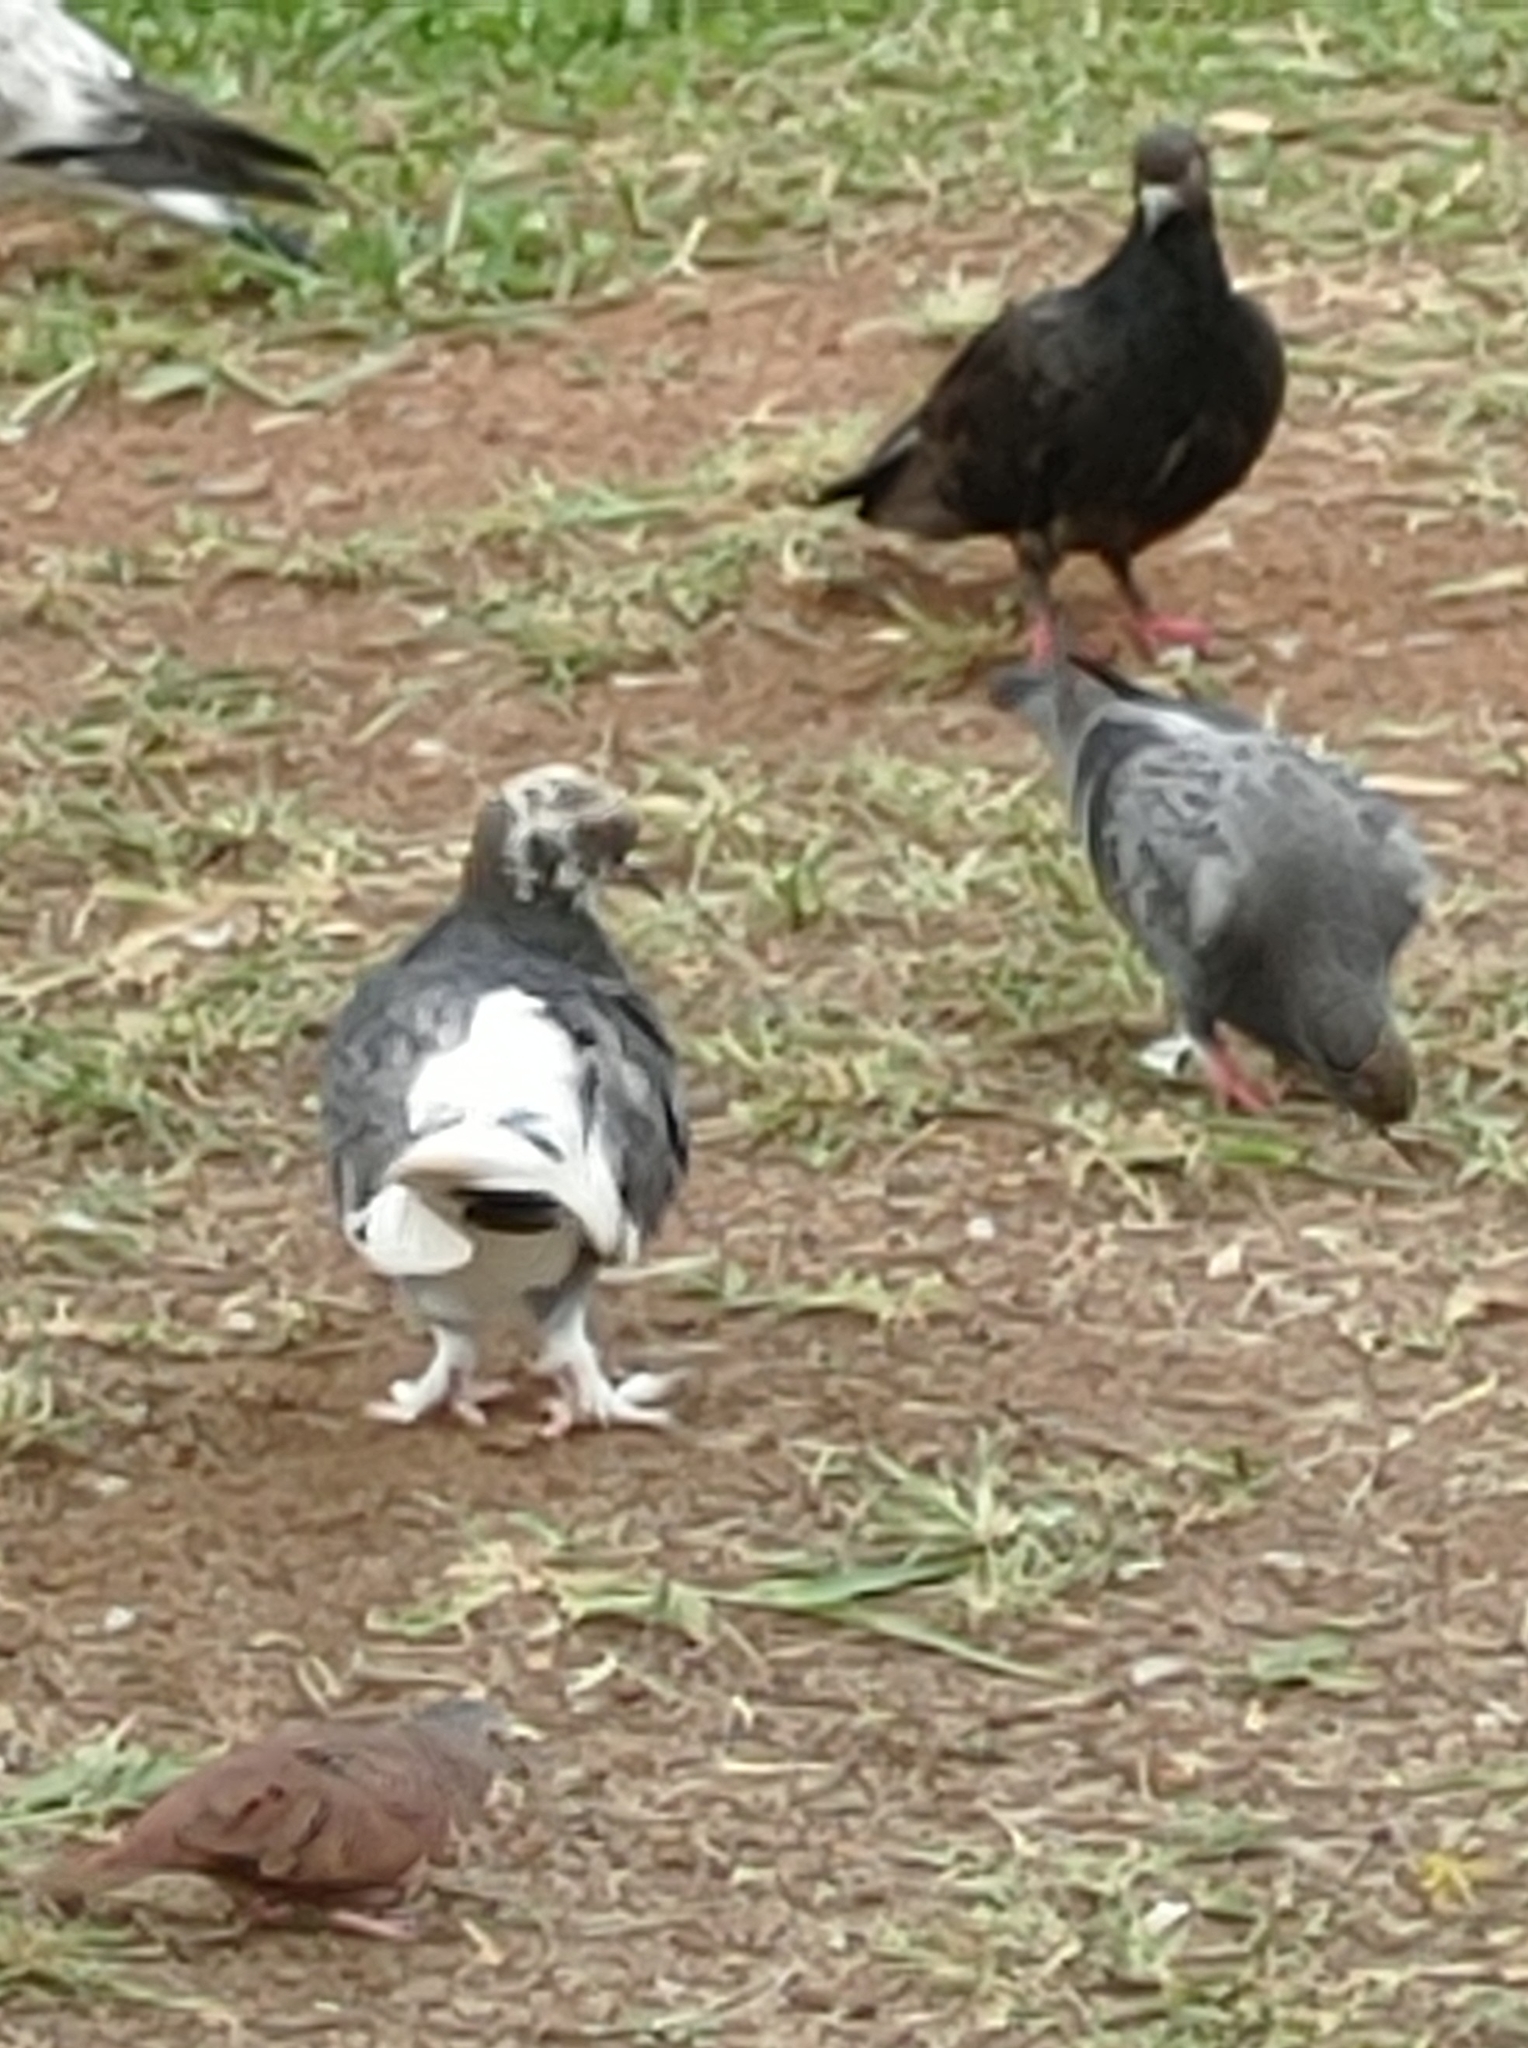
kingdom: Animalia
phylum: Chordata
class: Aves
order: Columbiformes
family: Columbidae
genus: Columba
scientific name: Columba livia
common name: Rock pigeon
